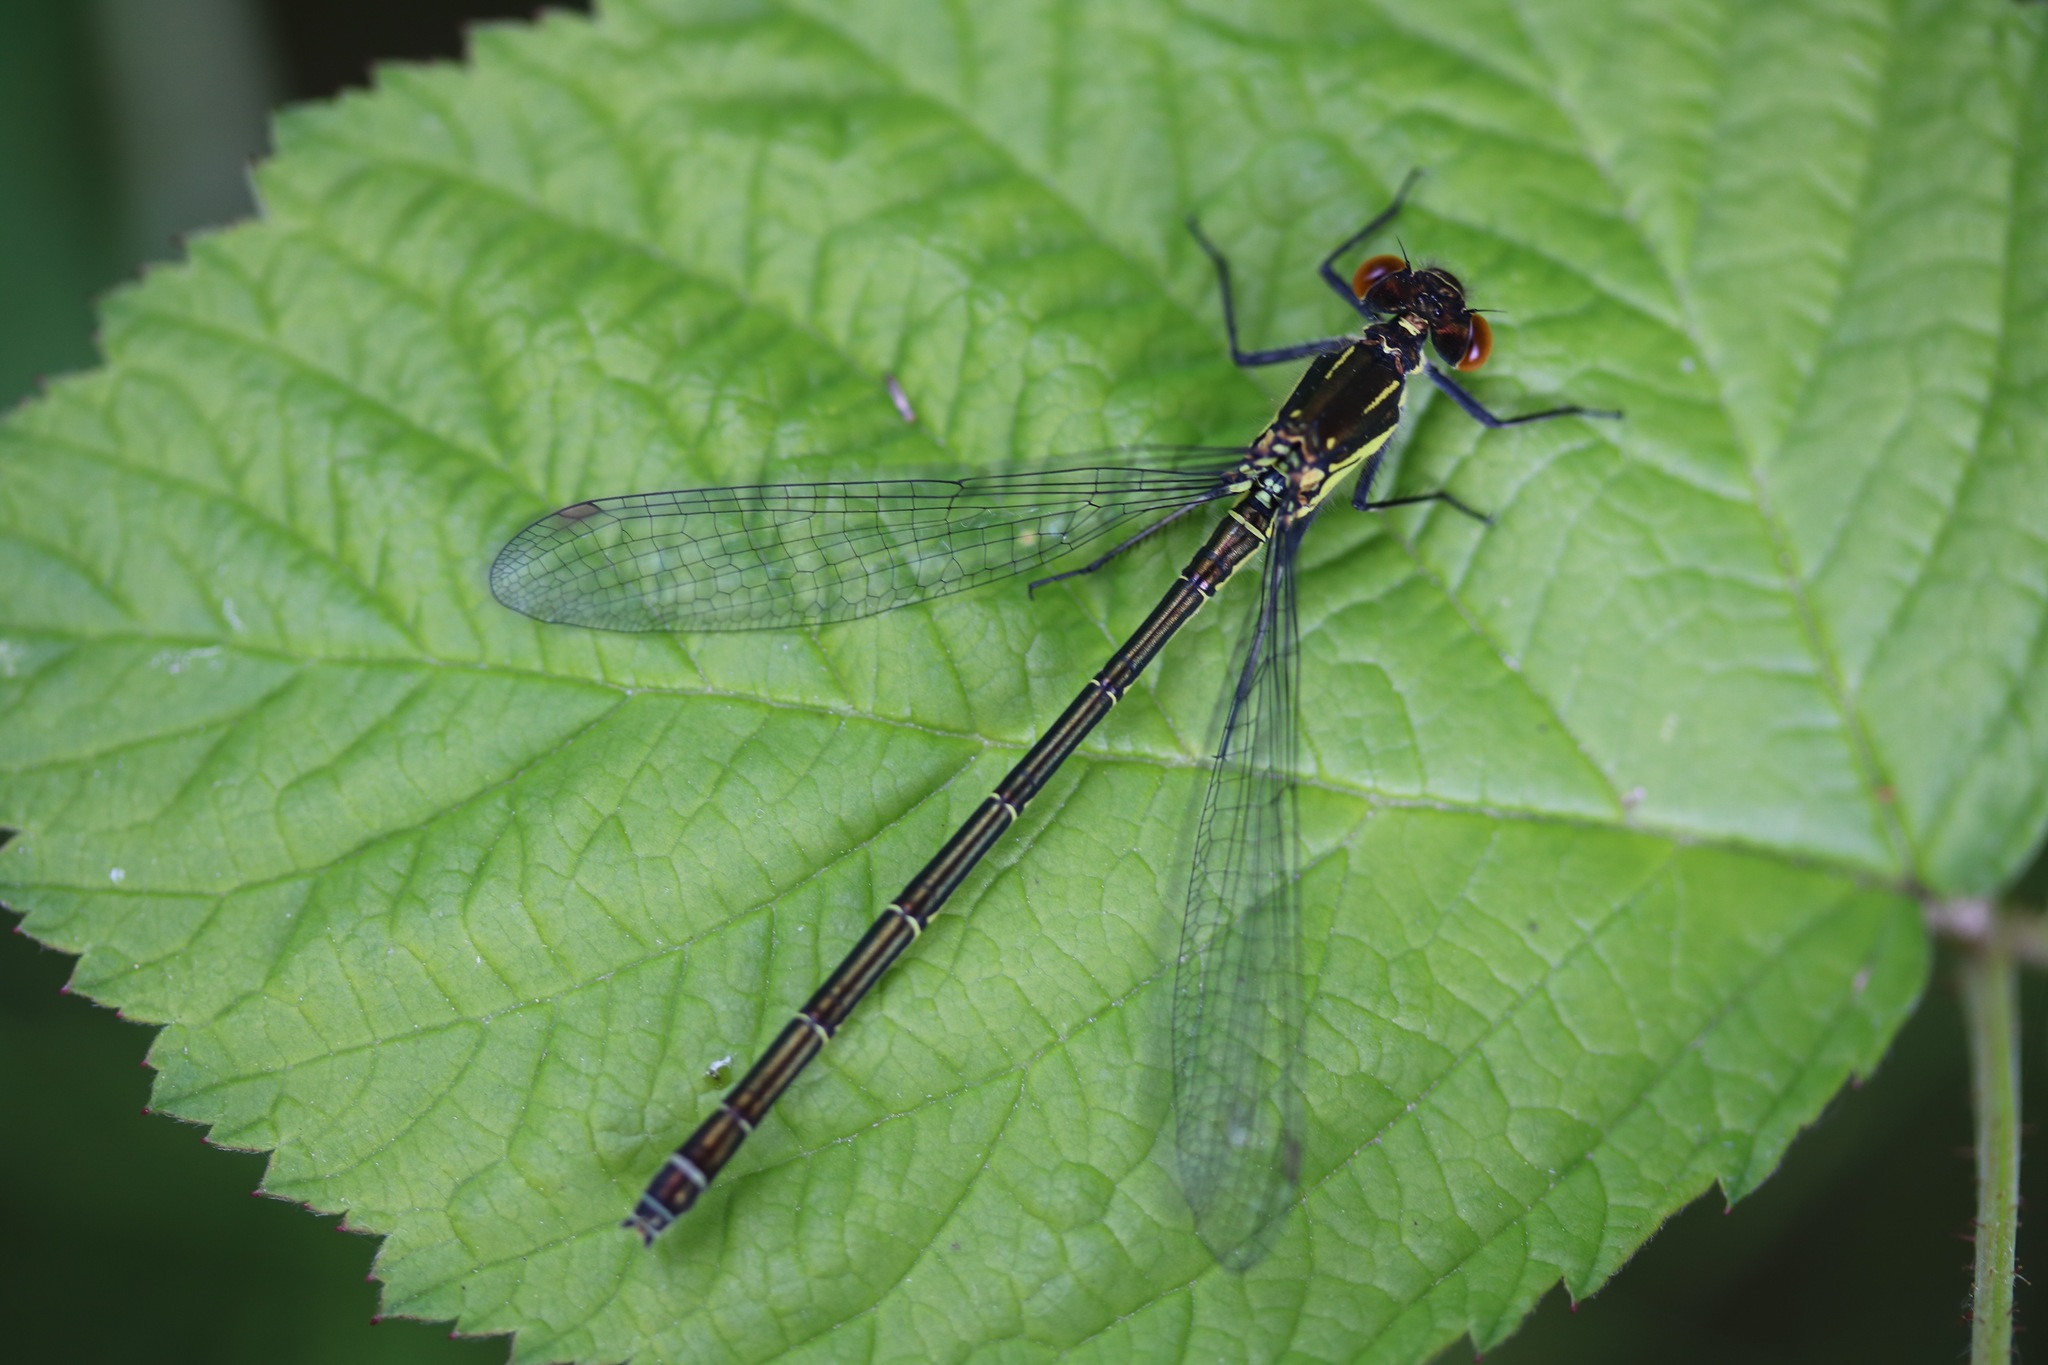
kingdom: Animalia
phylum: Arthropoda
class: Insecta
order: Odonata
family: Coenagrionidae
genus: Erythromma
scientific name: Erythromma najas
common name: Red-eyed damselfly
